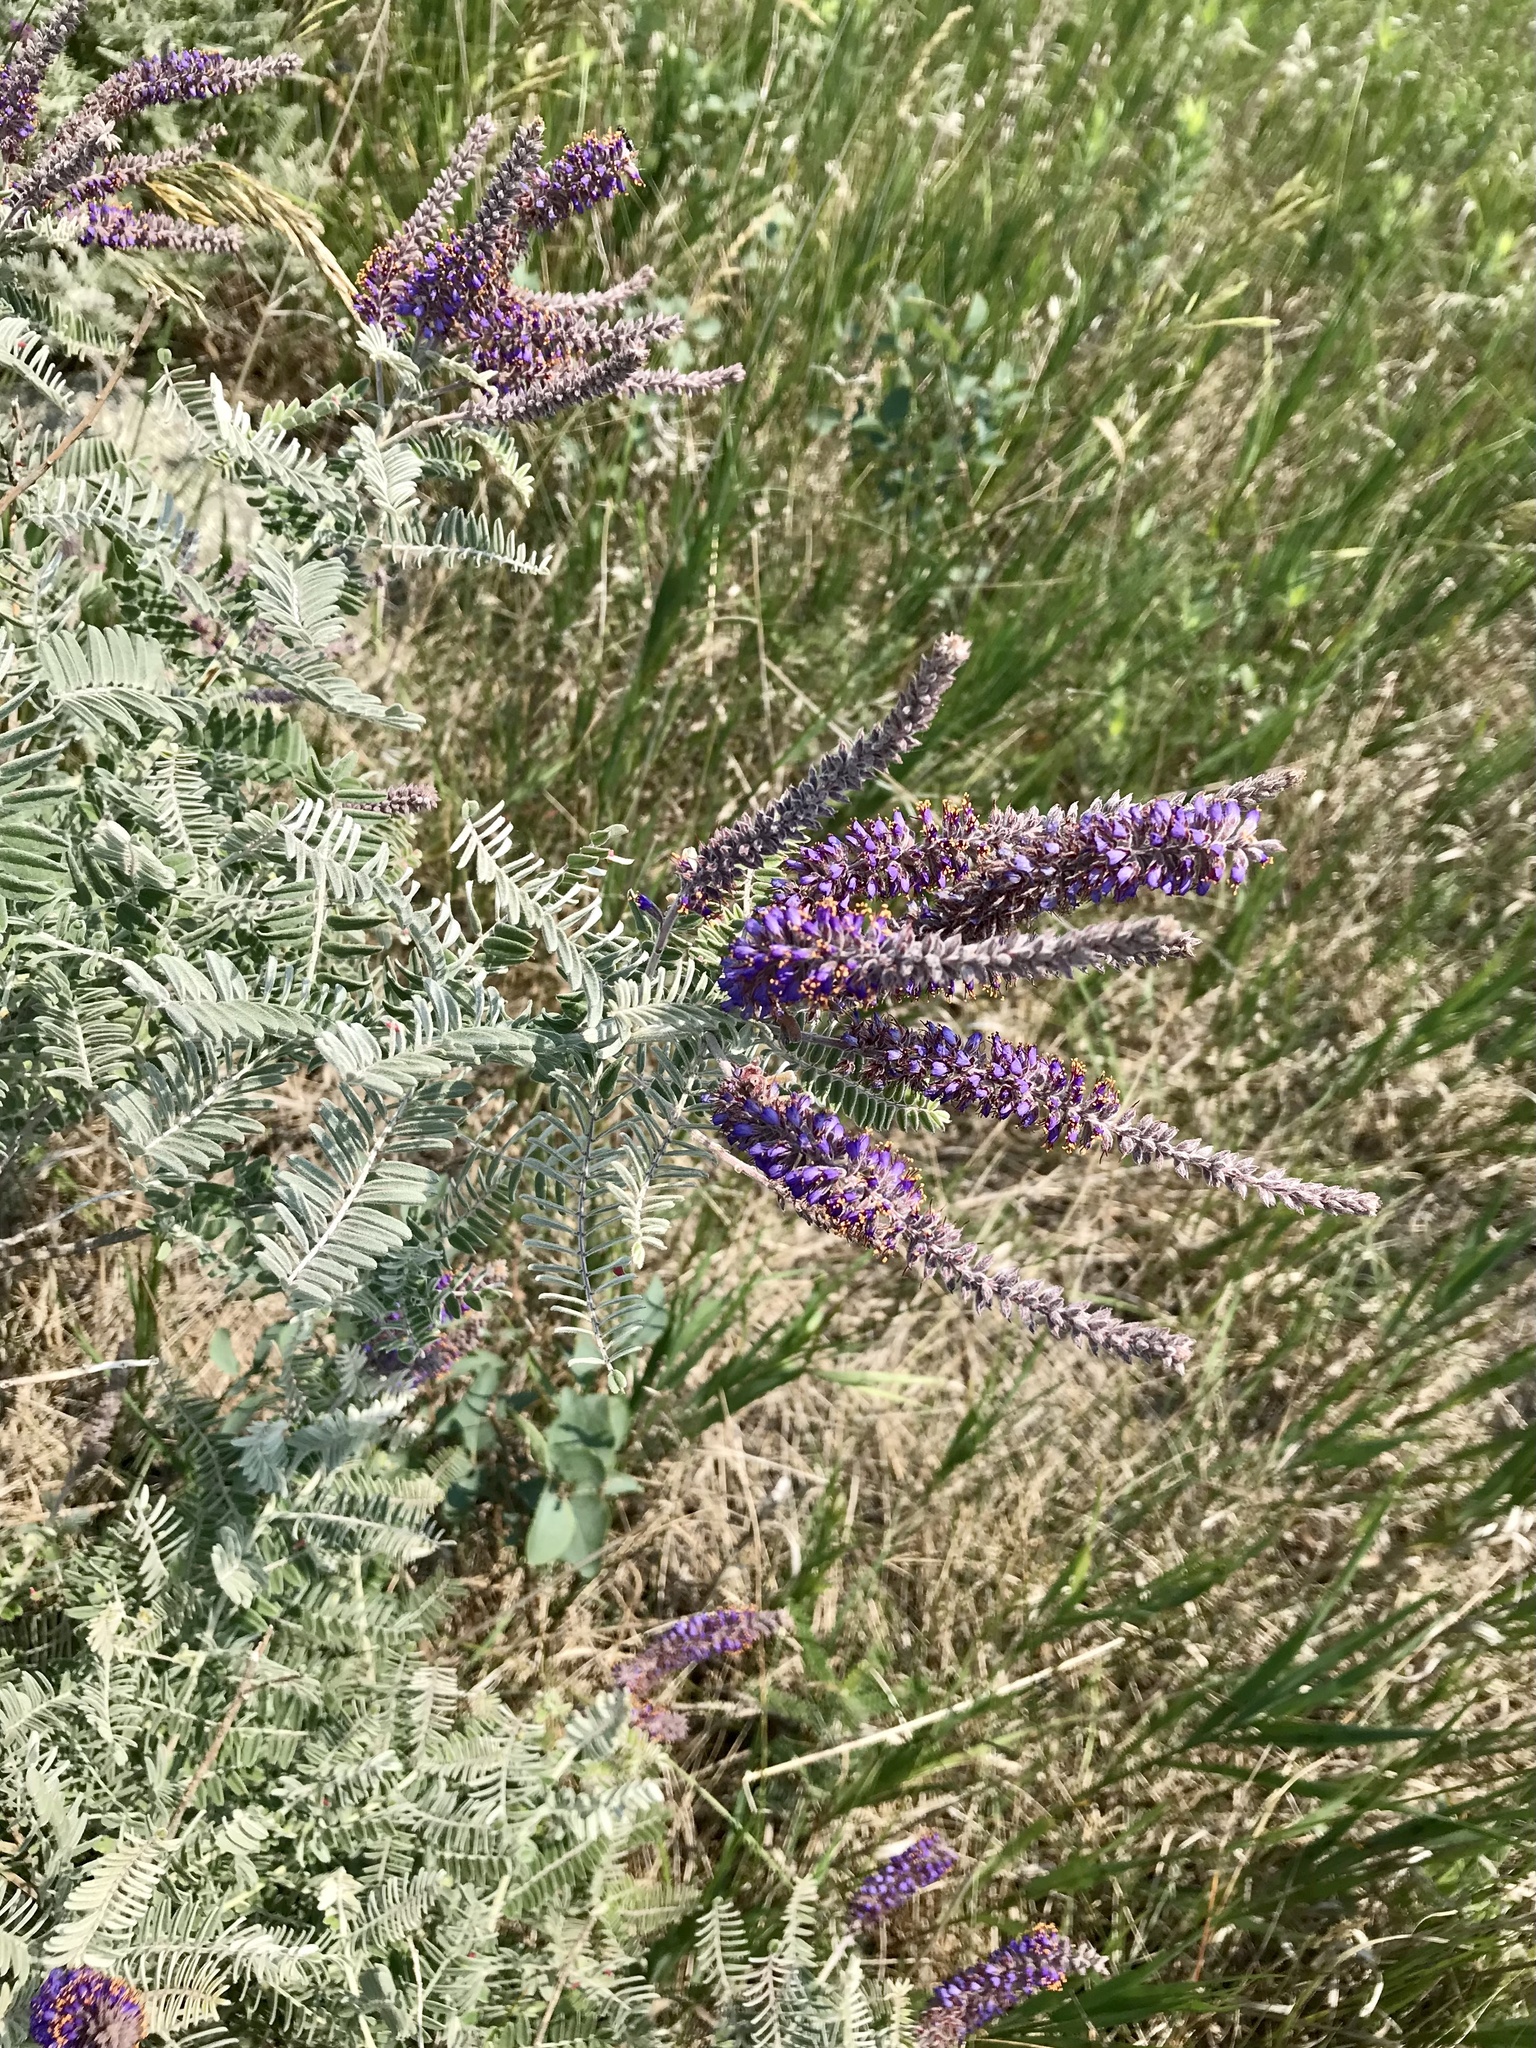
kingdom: Plantae
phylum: Tracheophyta
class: Magnoliopsida
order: Fabales
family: Fabaceae
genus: Amorpha
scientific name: Amorpha canescens
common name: Leadplant
